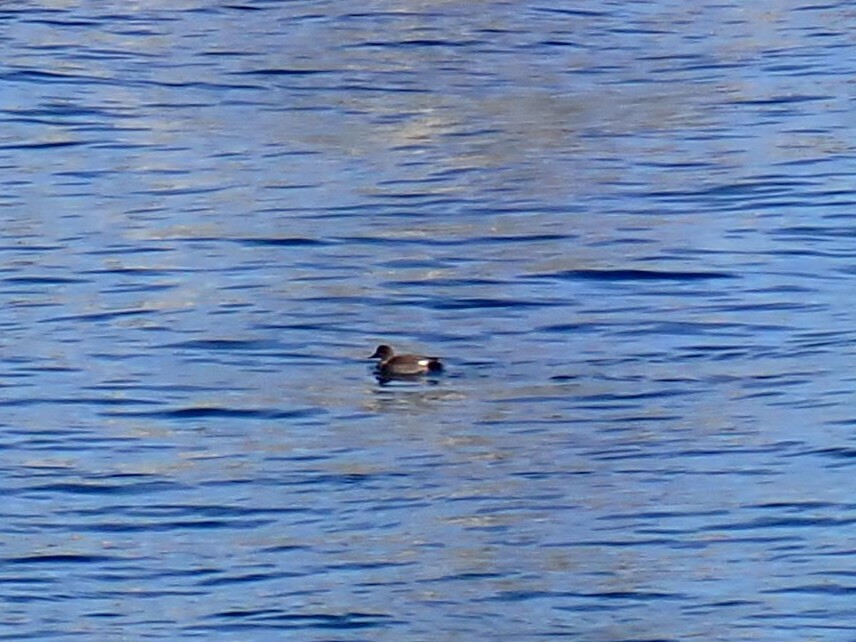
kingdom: Animalia
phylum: Chordata
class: Aves
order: Anseriformes
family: Anatidae
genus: Mareca
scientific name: Mareca strepera
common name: Gadwall
